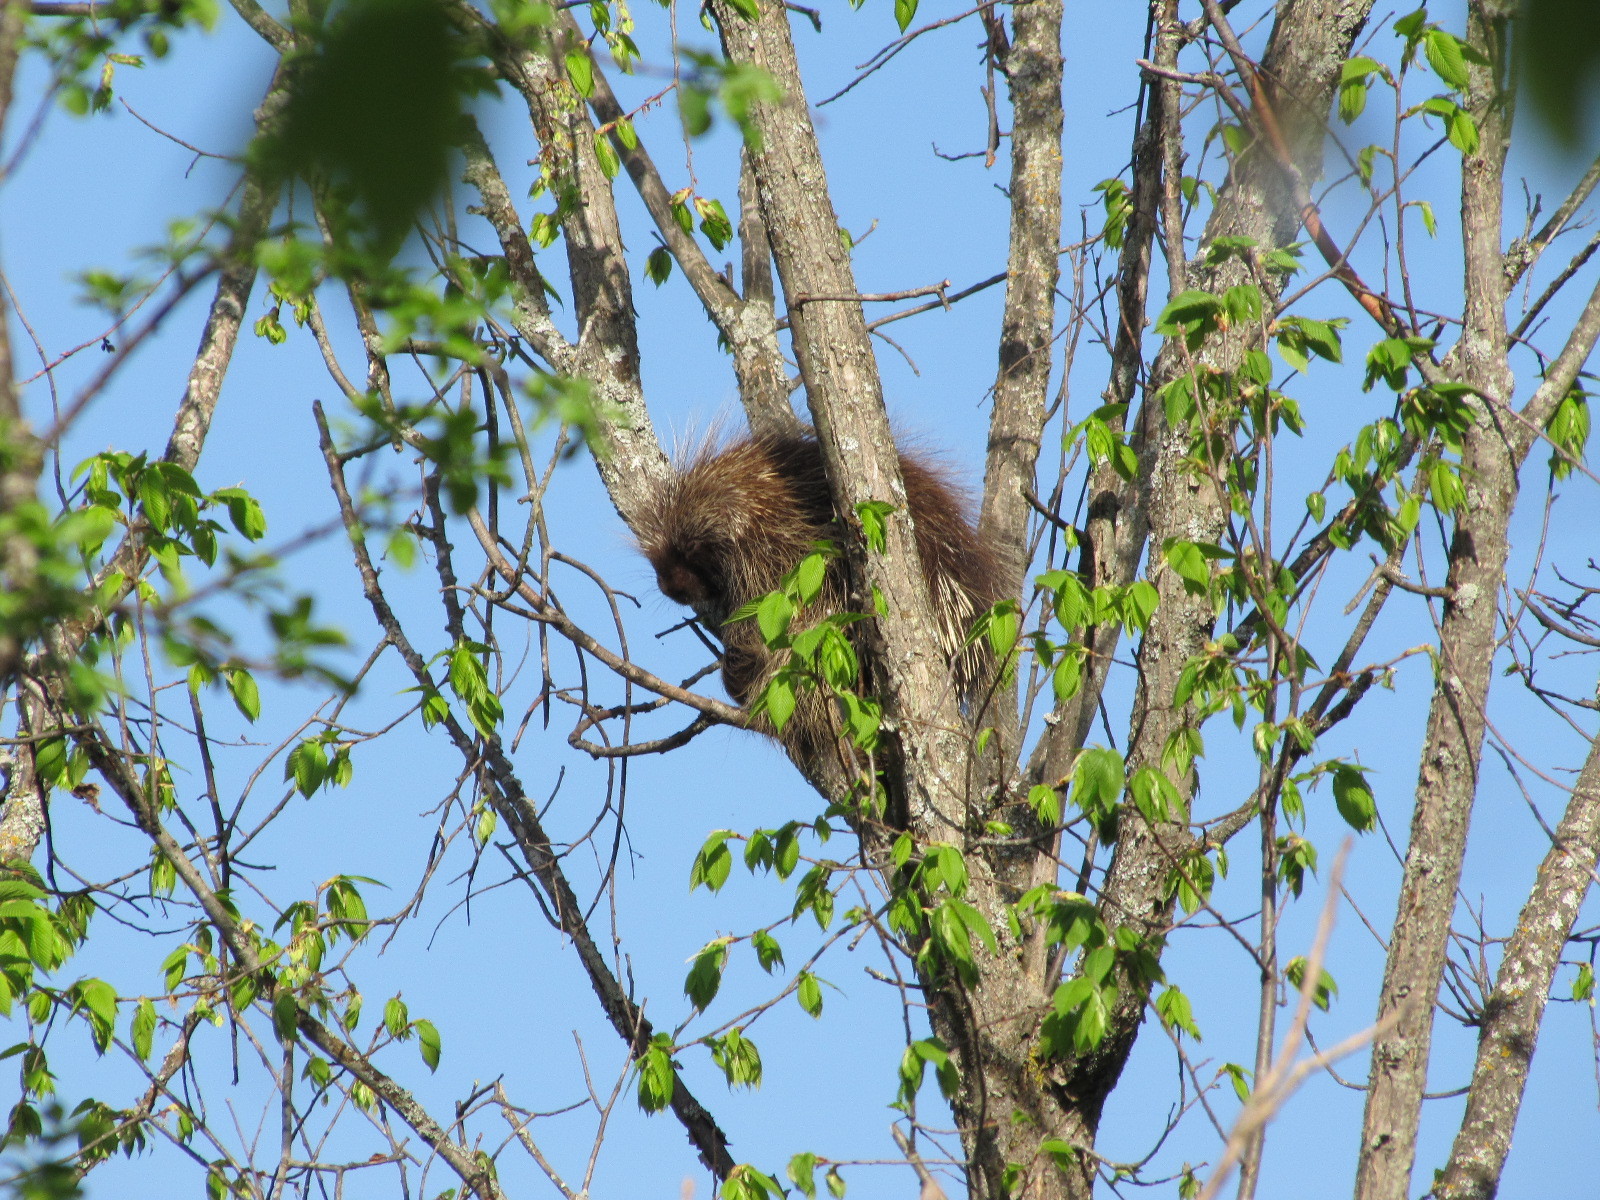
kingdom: Animalia
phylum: Chordata
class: Mammalia
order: Rodentia
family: Erethizontidae
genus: Erethizon
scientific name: Erethizon dorsatus
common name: North american porcupine
